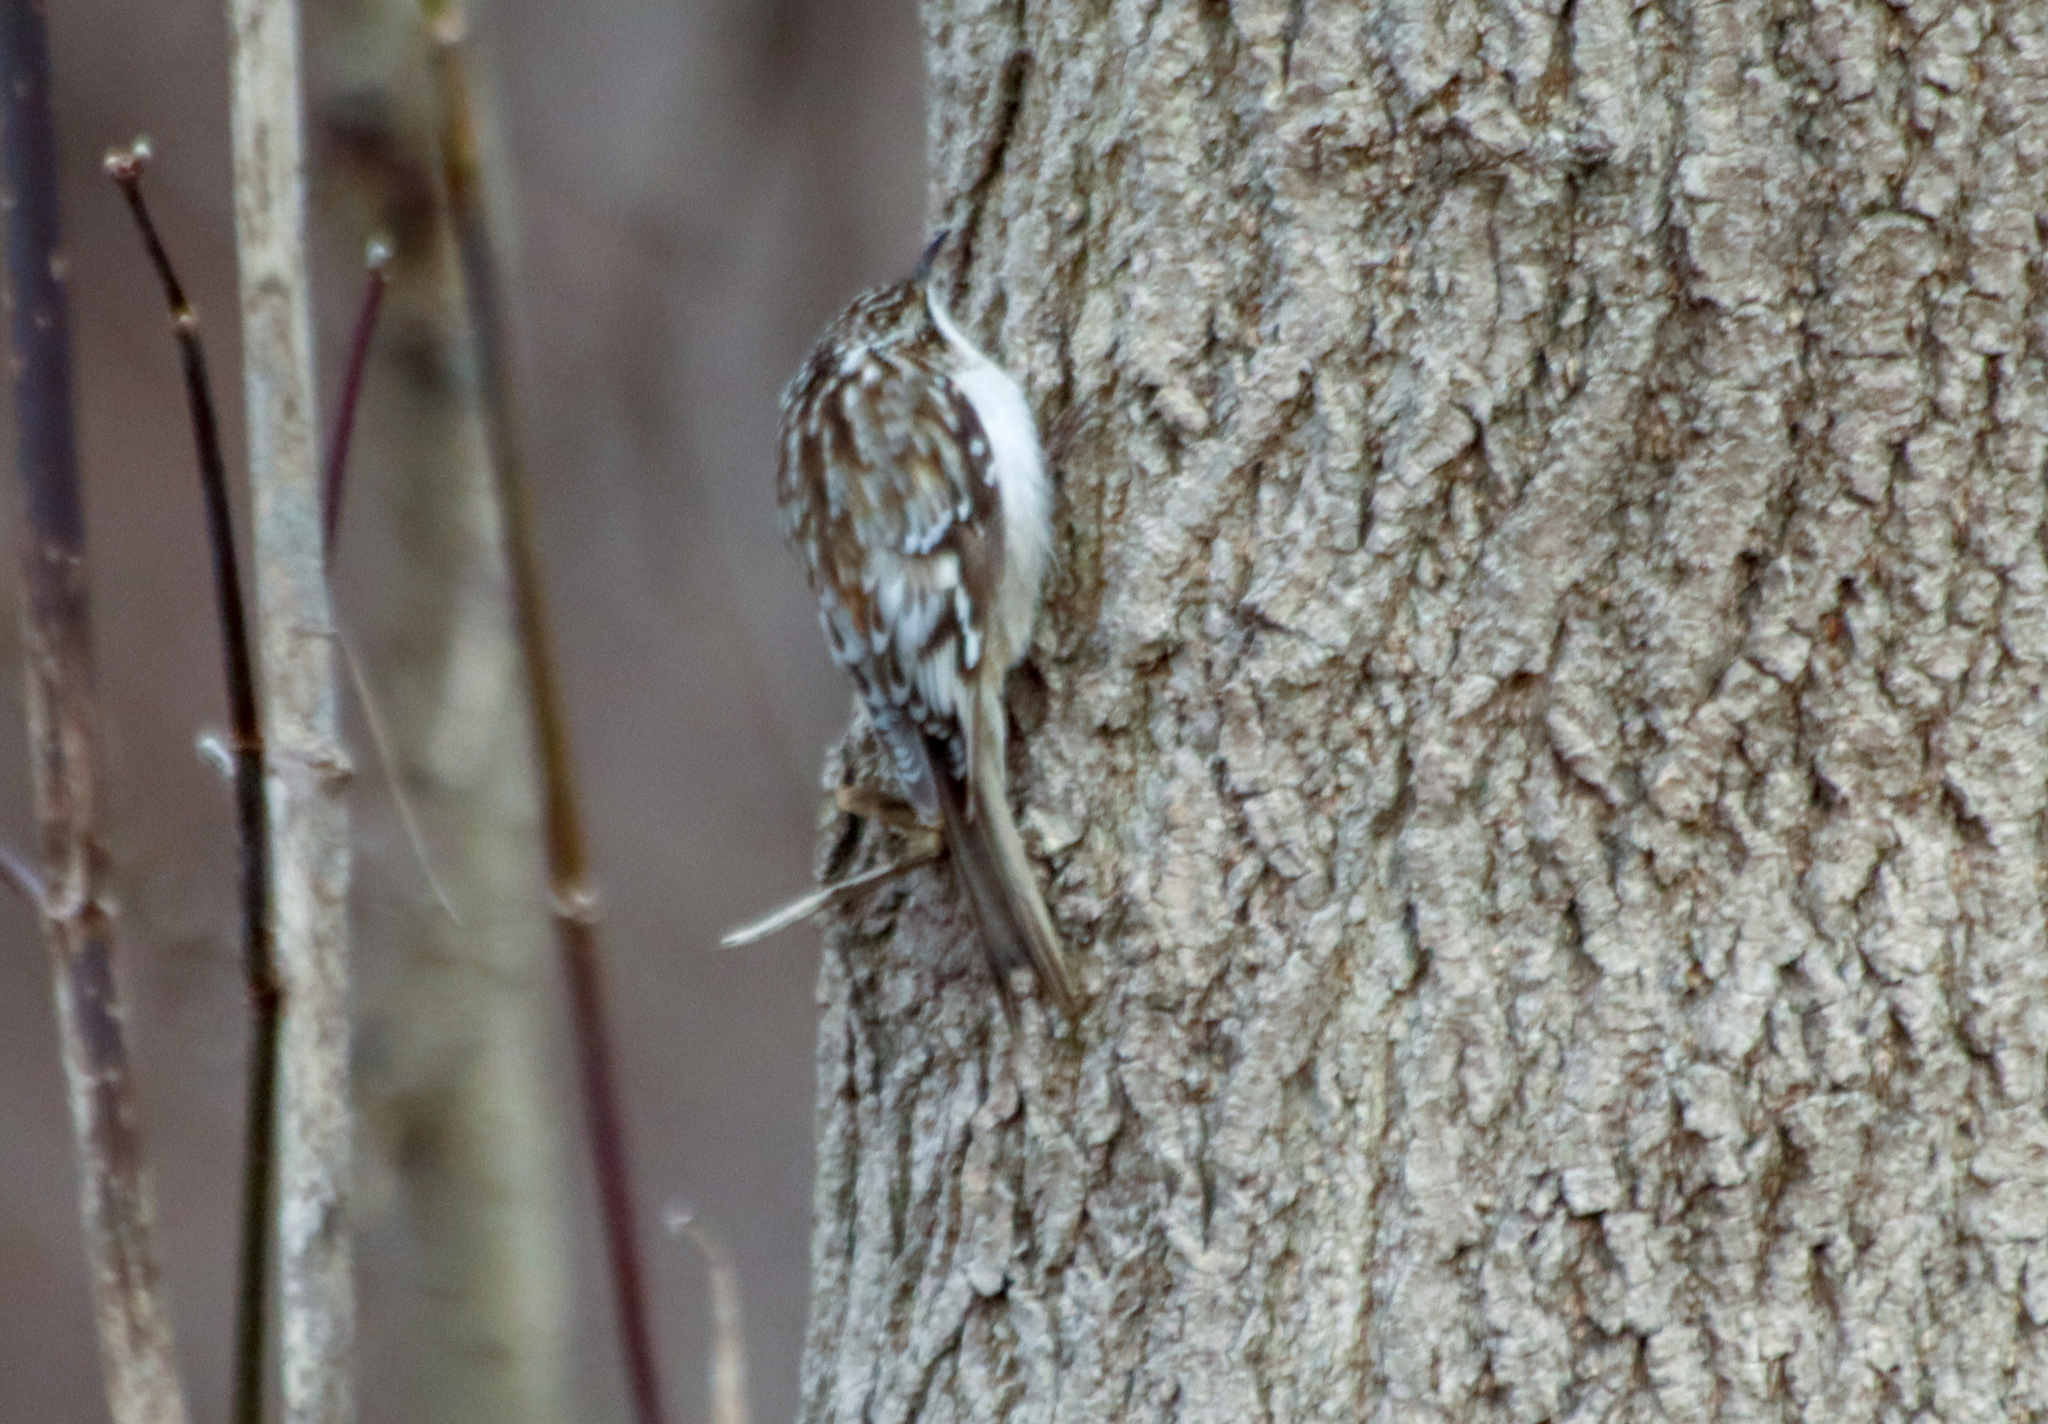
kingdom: Animalia
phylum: Chordata
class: Aves
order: Passeriformes
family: Certhiidae
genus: Certhia
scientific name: Certhia americana
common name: Brown creeper
